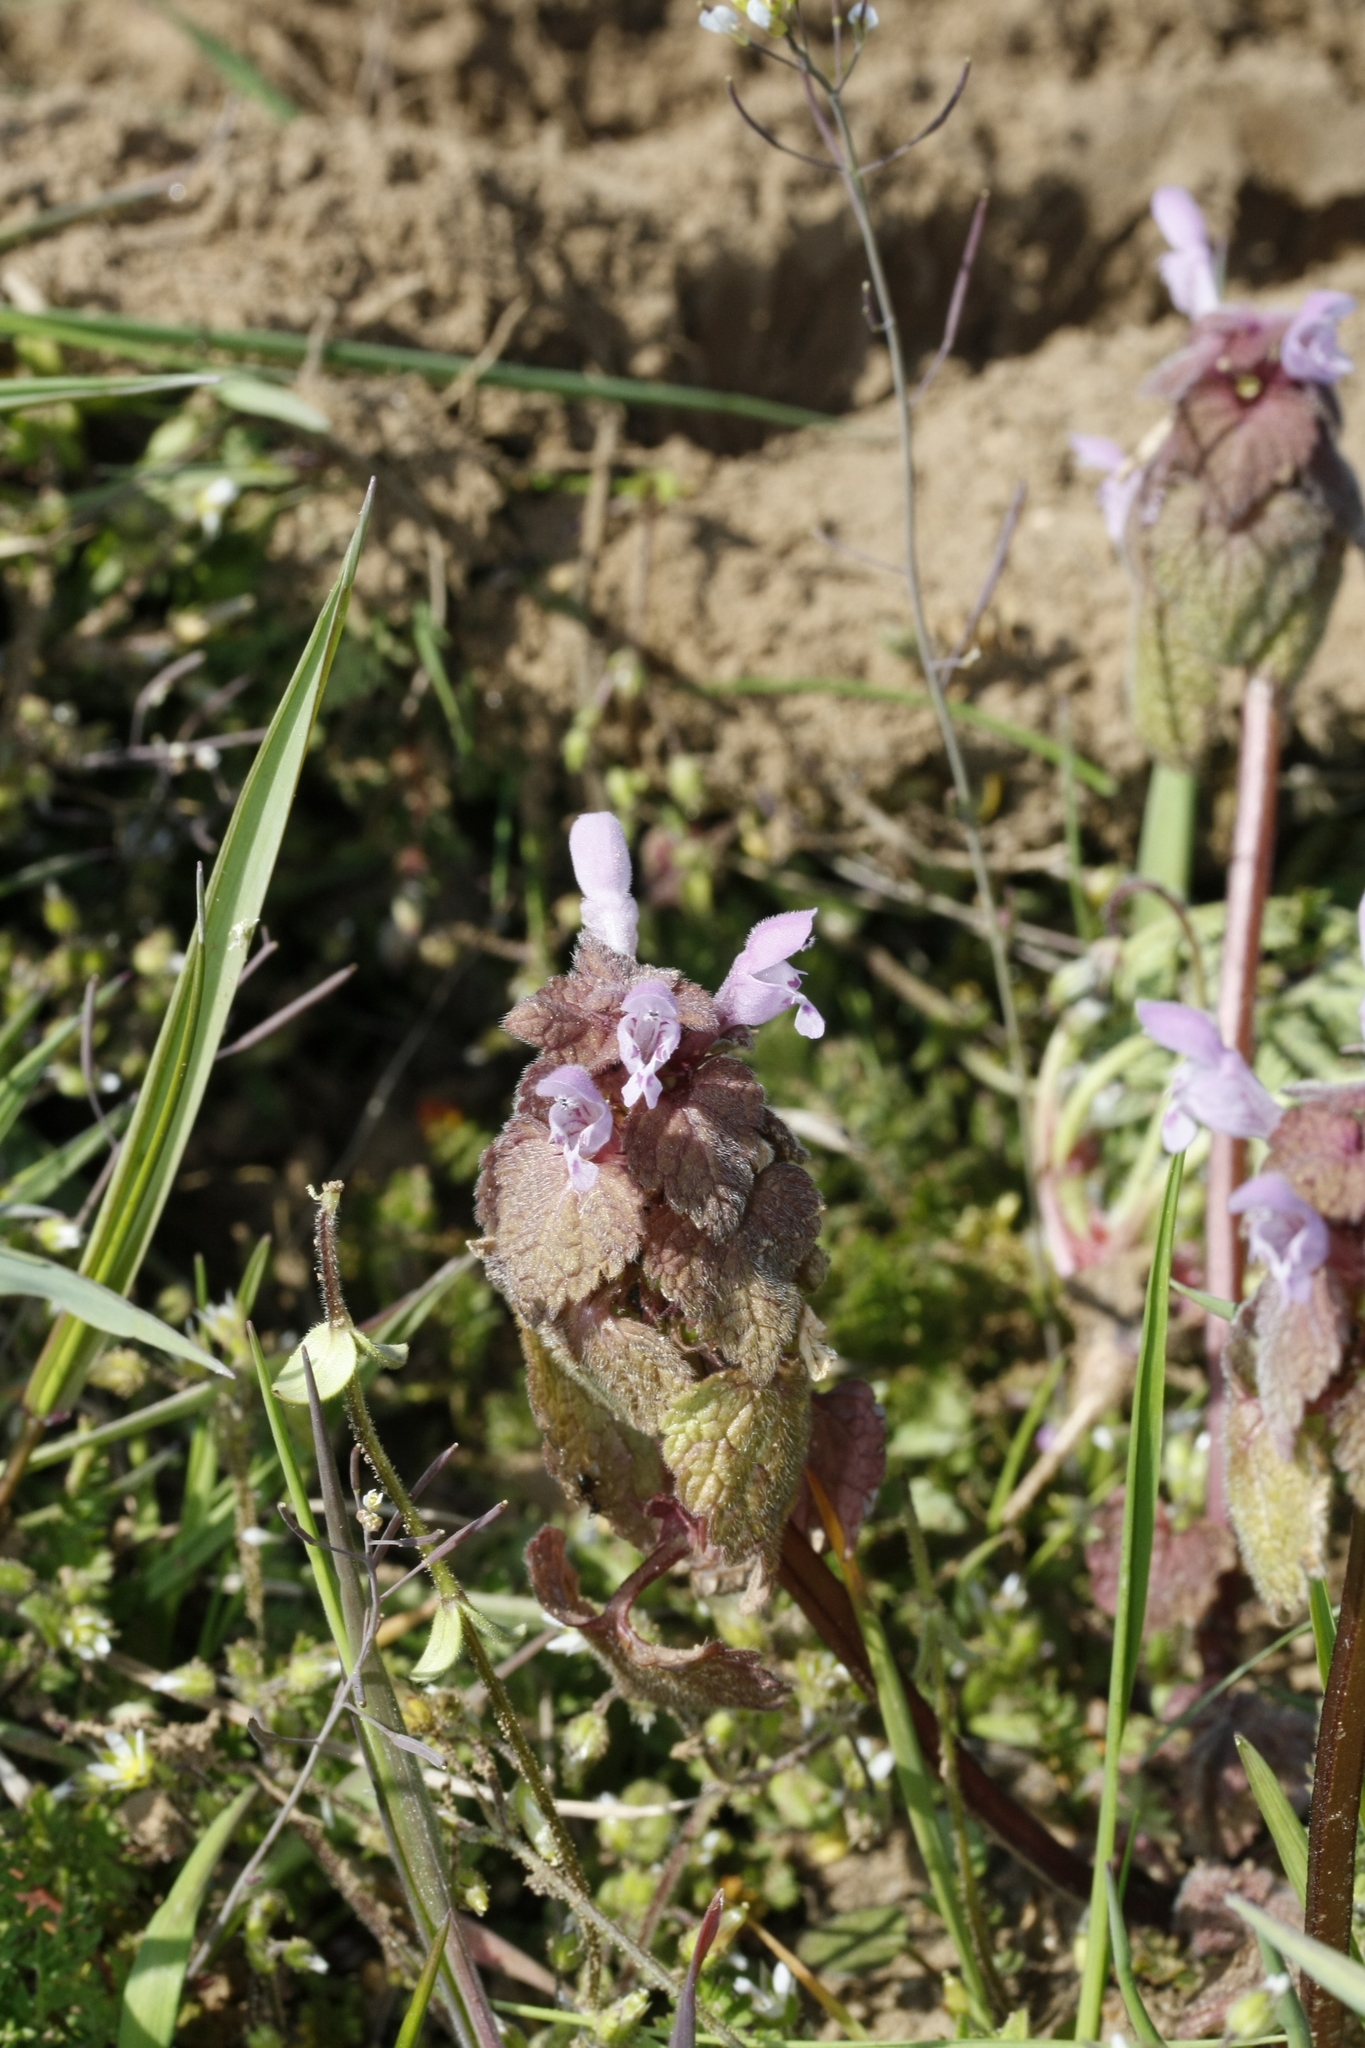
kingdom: Plantae
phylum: Tracheophyta
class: Magnoliopsida
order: Lamiales
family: Lamiaceae
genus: Lamium
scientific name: Lamium purpureum
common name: Red dead-nettle
